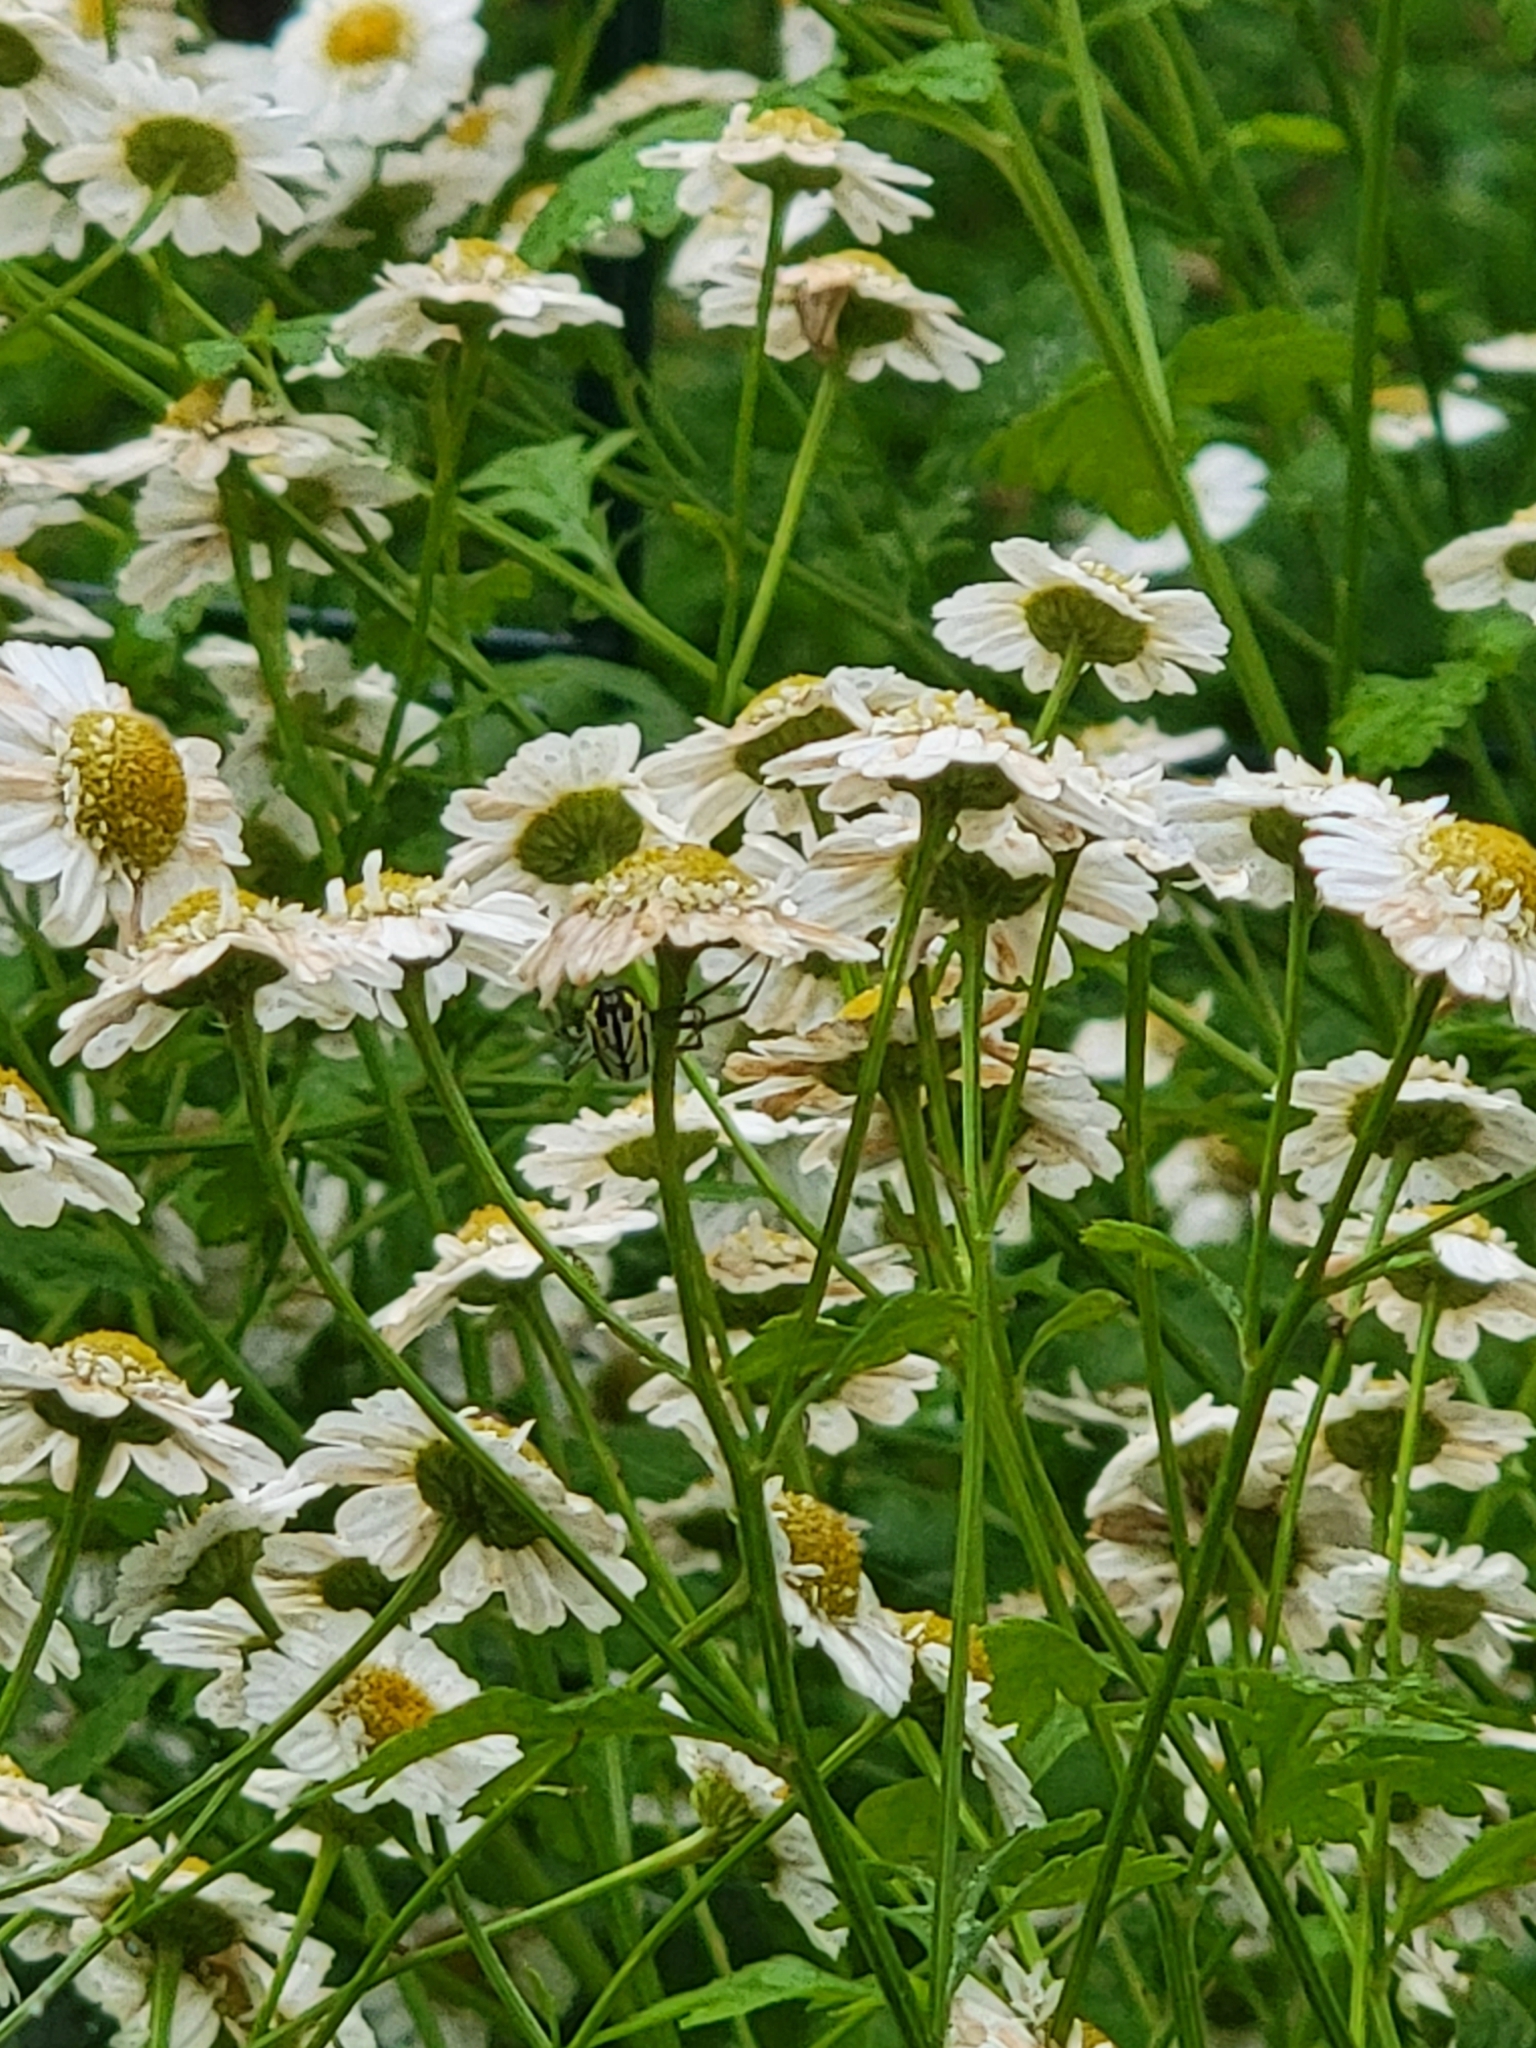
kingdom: Animalia
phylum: Arthropoda
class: Arachnida
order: Araneae
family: Tetragnathidae
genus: Leucauge
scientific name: Leucauge venusta
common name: Longjawed orb weavers
